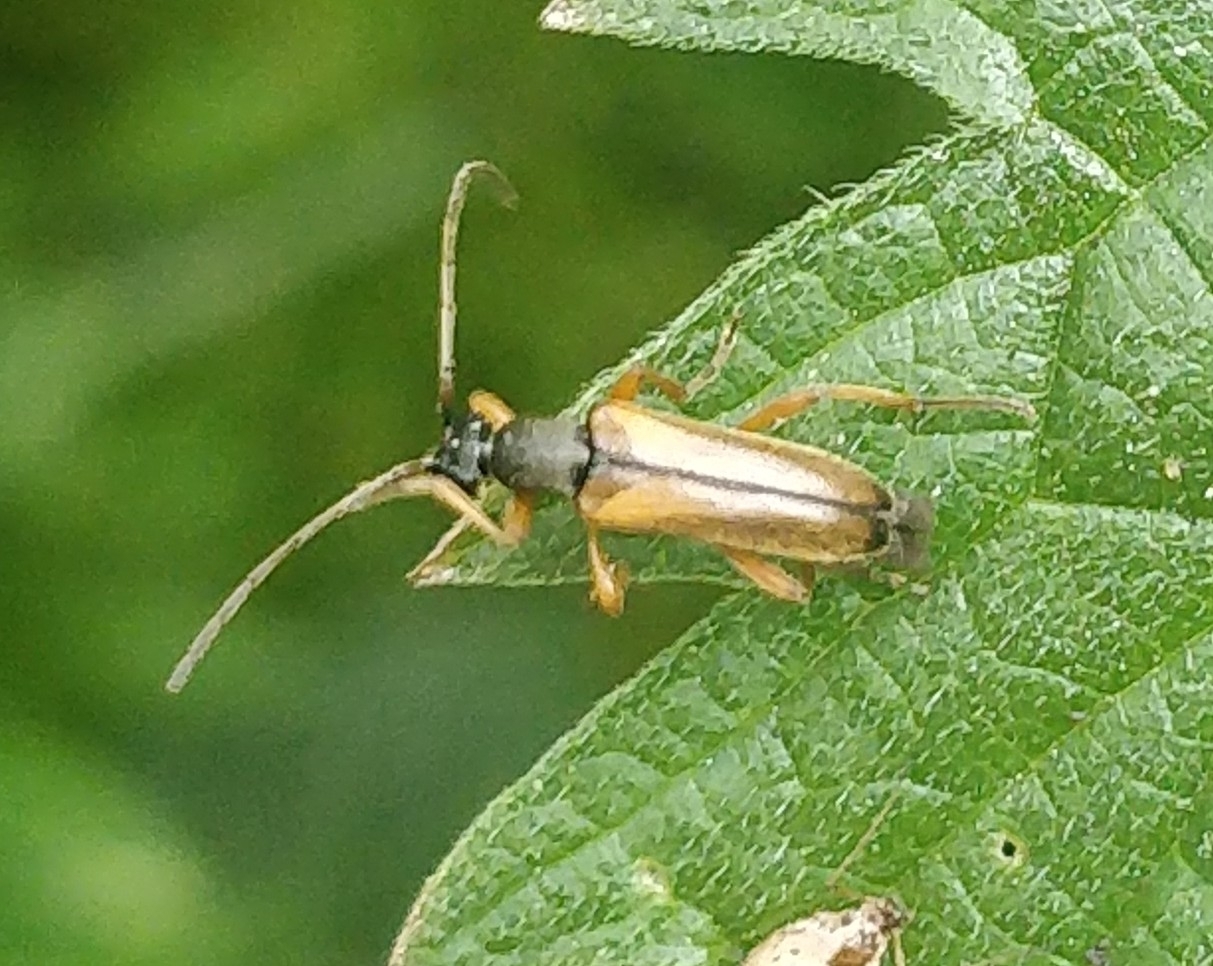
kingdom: Animalia
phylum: Arthropoda
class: Insecta
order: Coleoptera
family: Cerambycidae
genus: Alosterna
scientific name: Alosterna tabacicolor
